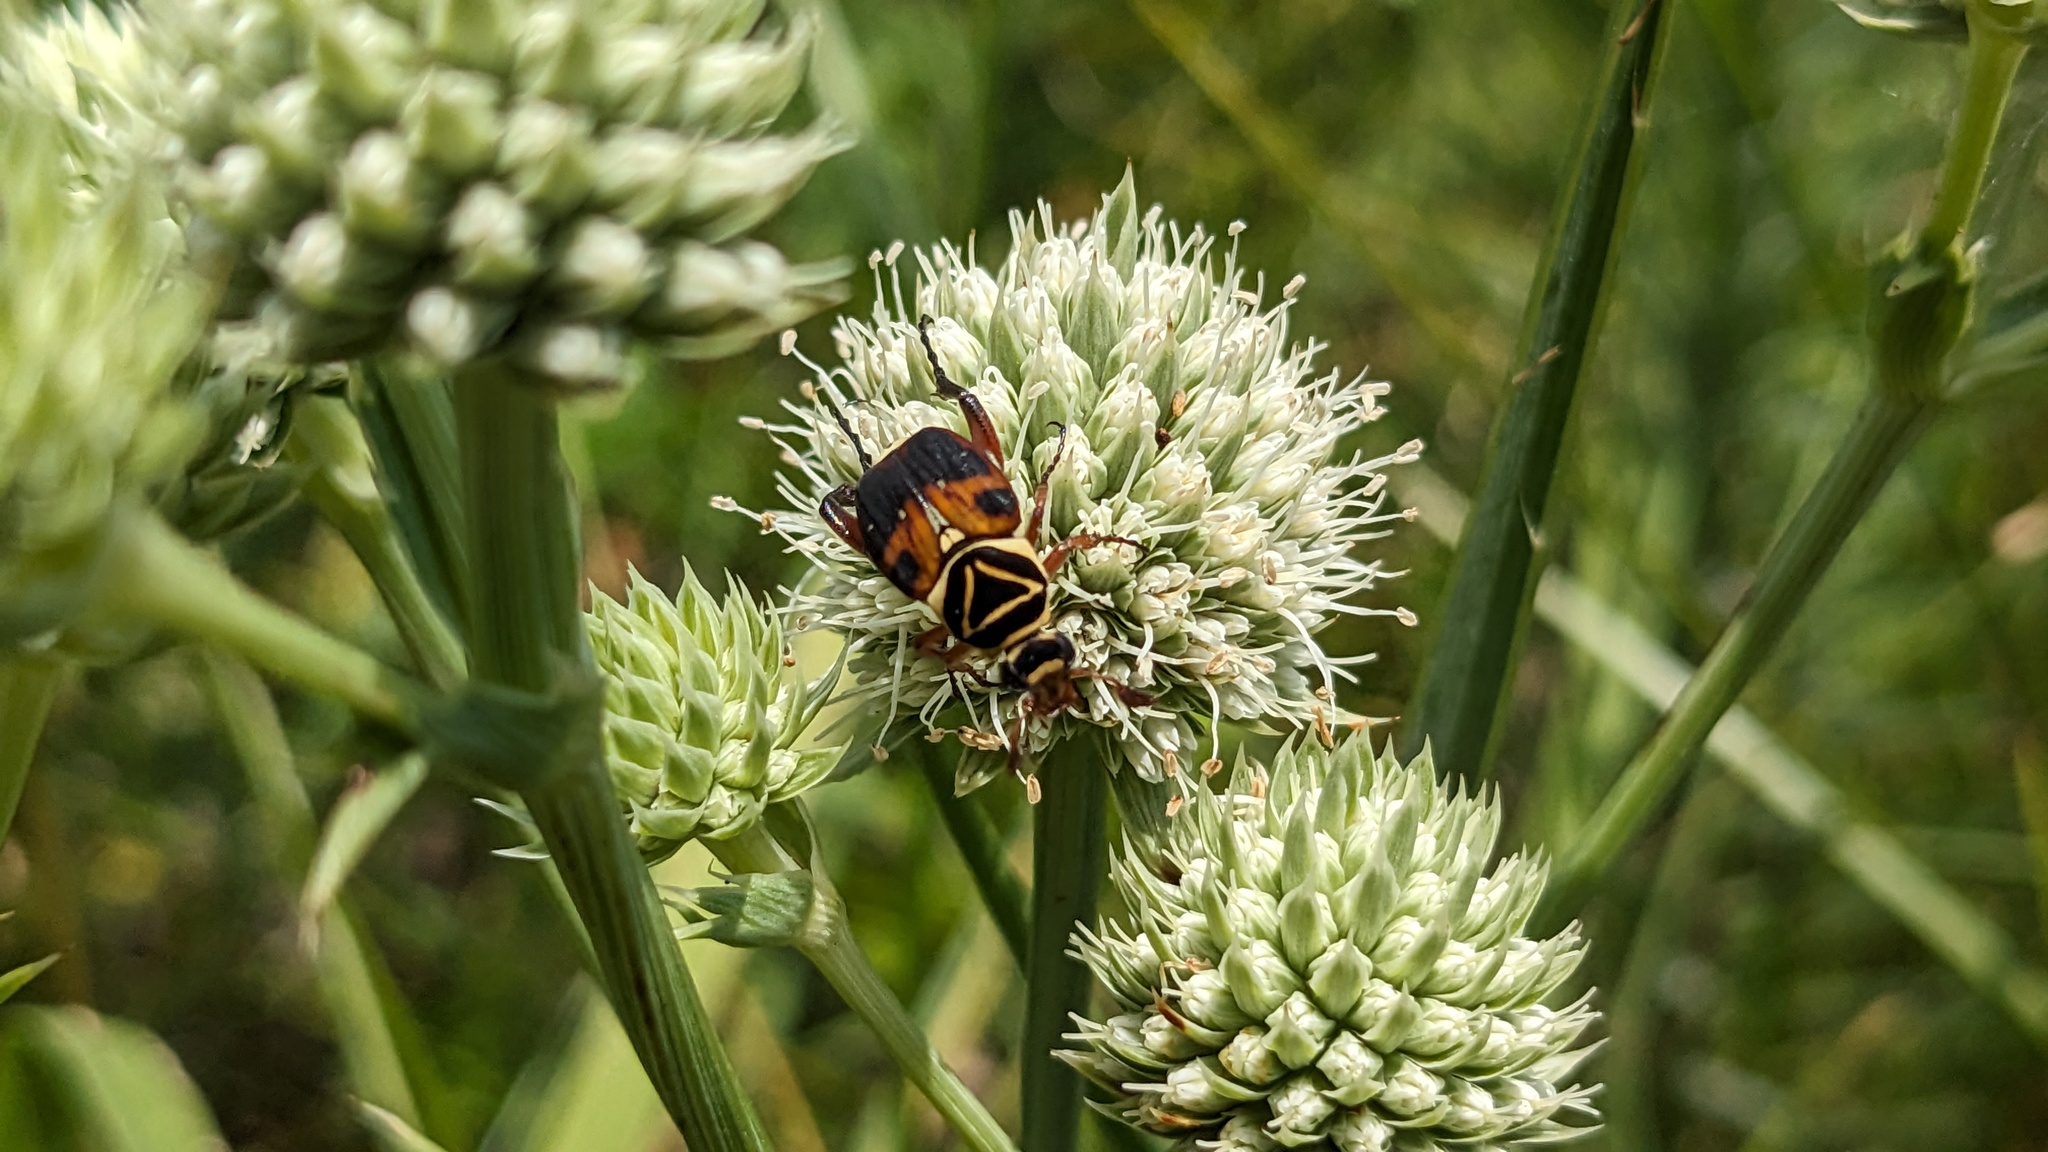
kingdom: Animalia
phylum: Arthropoda
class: Insecta
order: Coleoptera
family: Scarabaeidae
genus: Trigonopeltastes
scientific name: Trigonopeltastes delta
